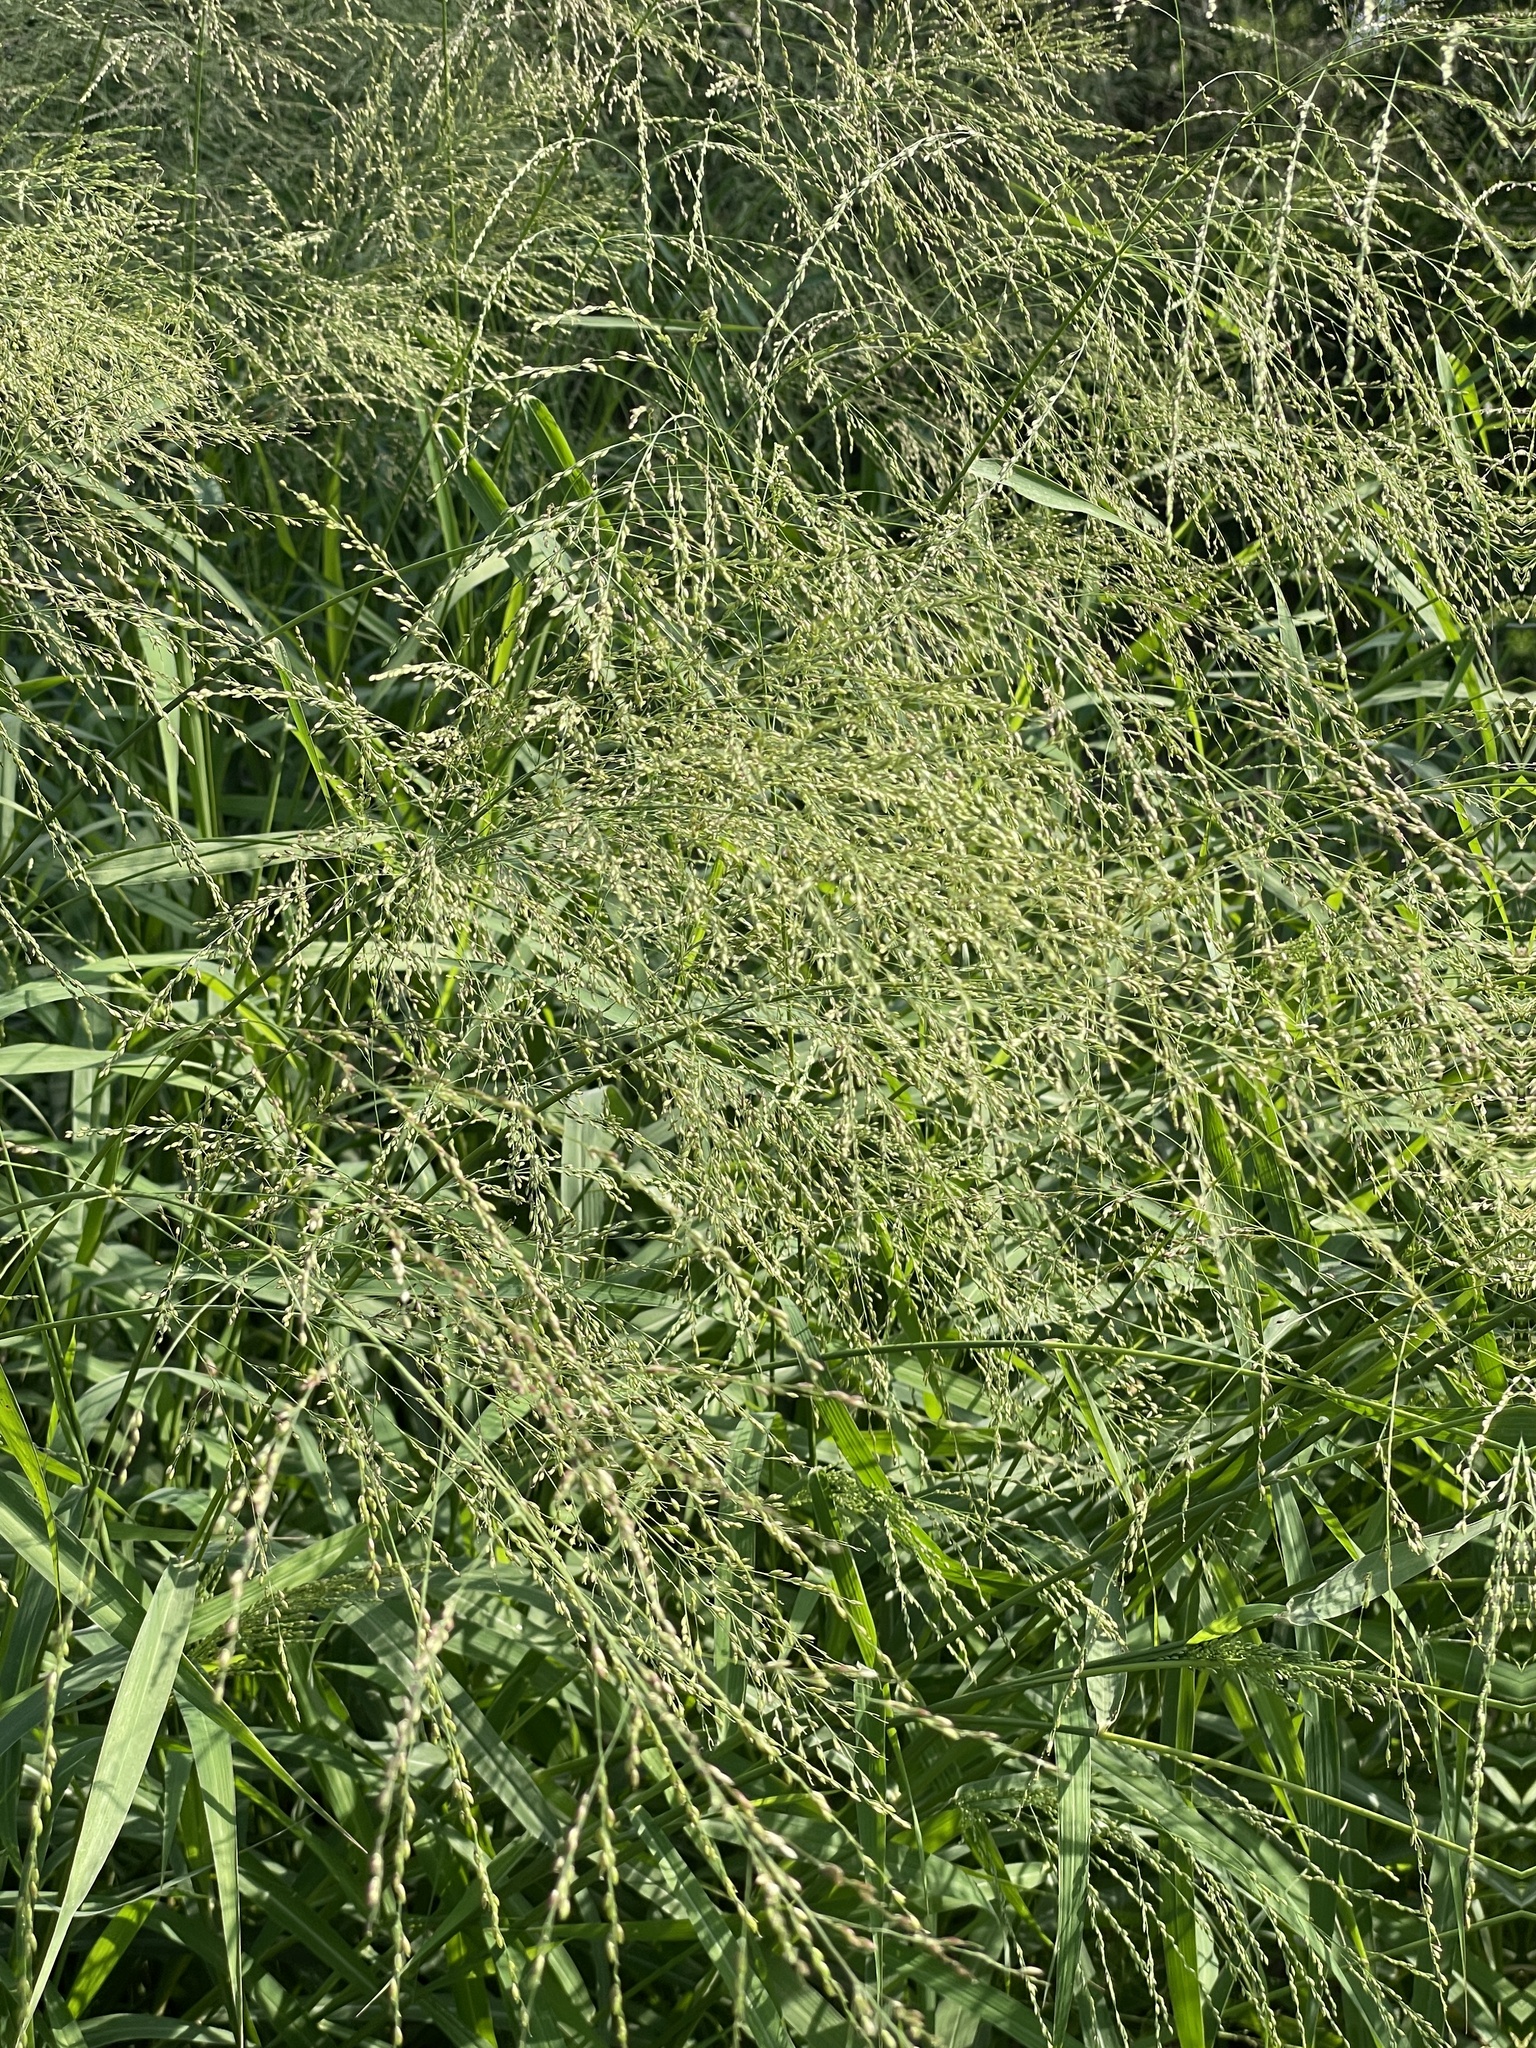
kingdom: Plantae
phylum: Tracheophyta
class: Liliopsida
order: Poales
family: Poaceae
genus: Megathyrsus
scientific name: Megathyrsus maximus
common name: Guineagrass
